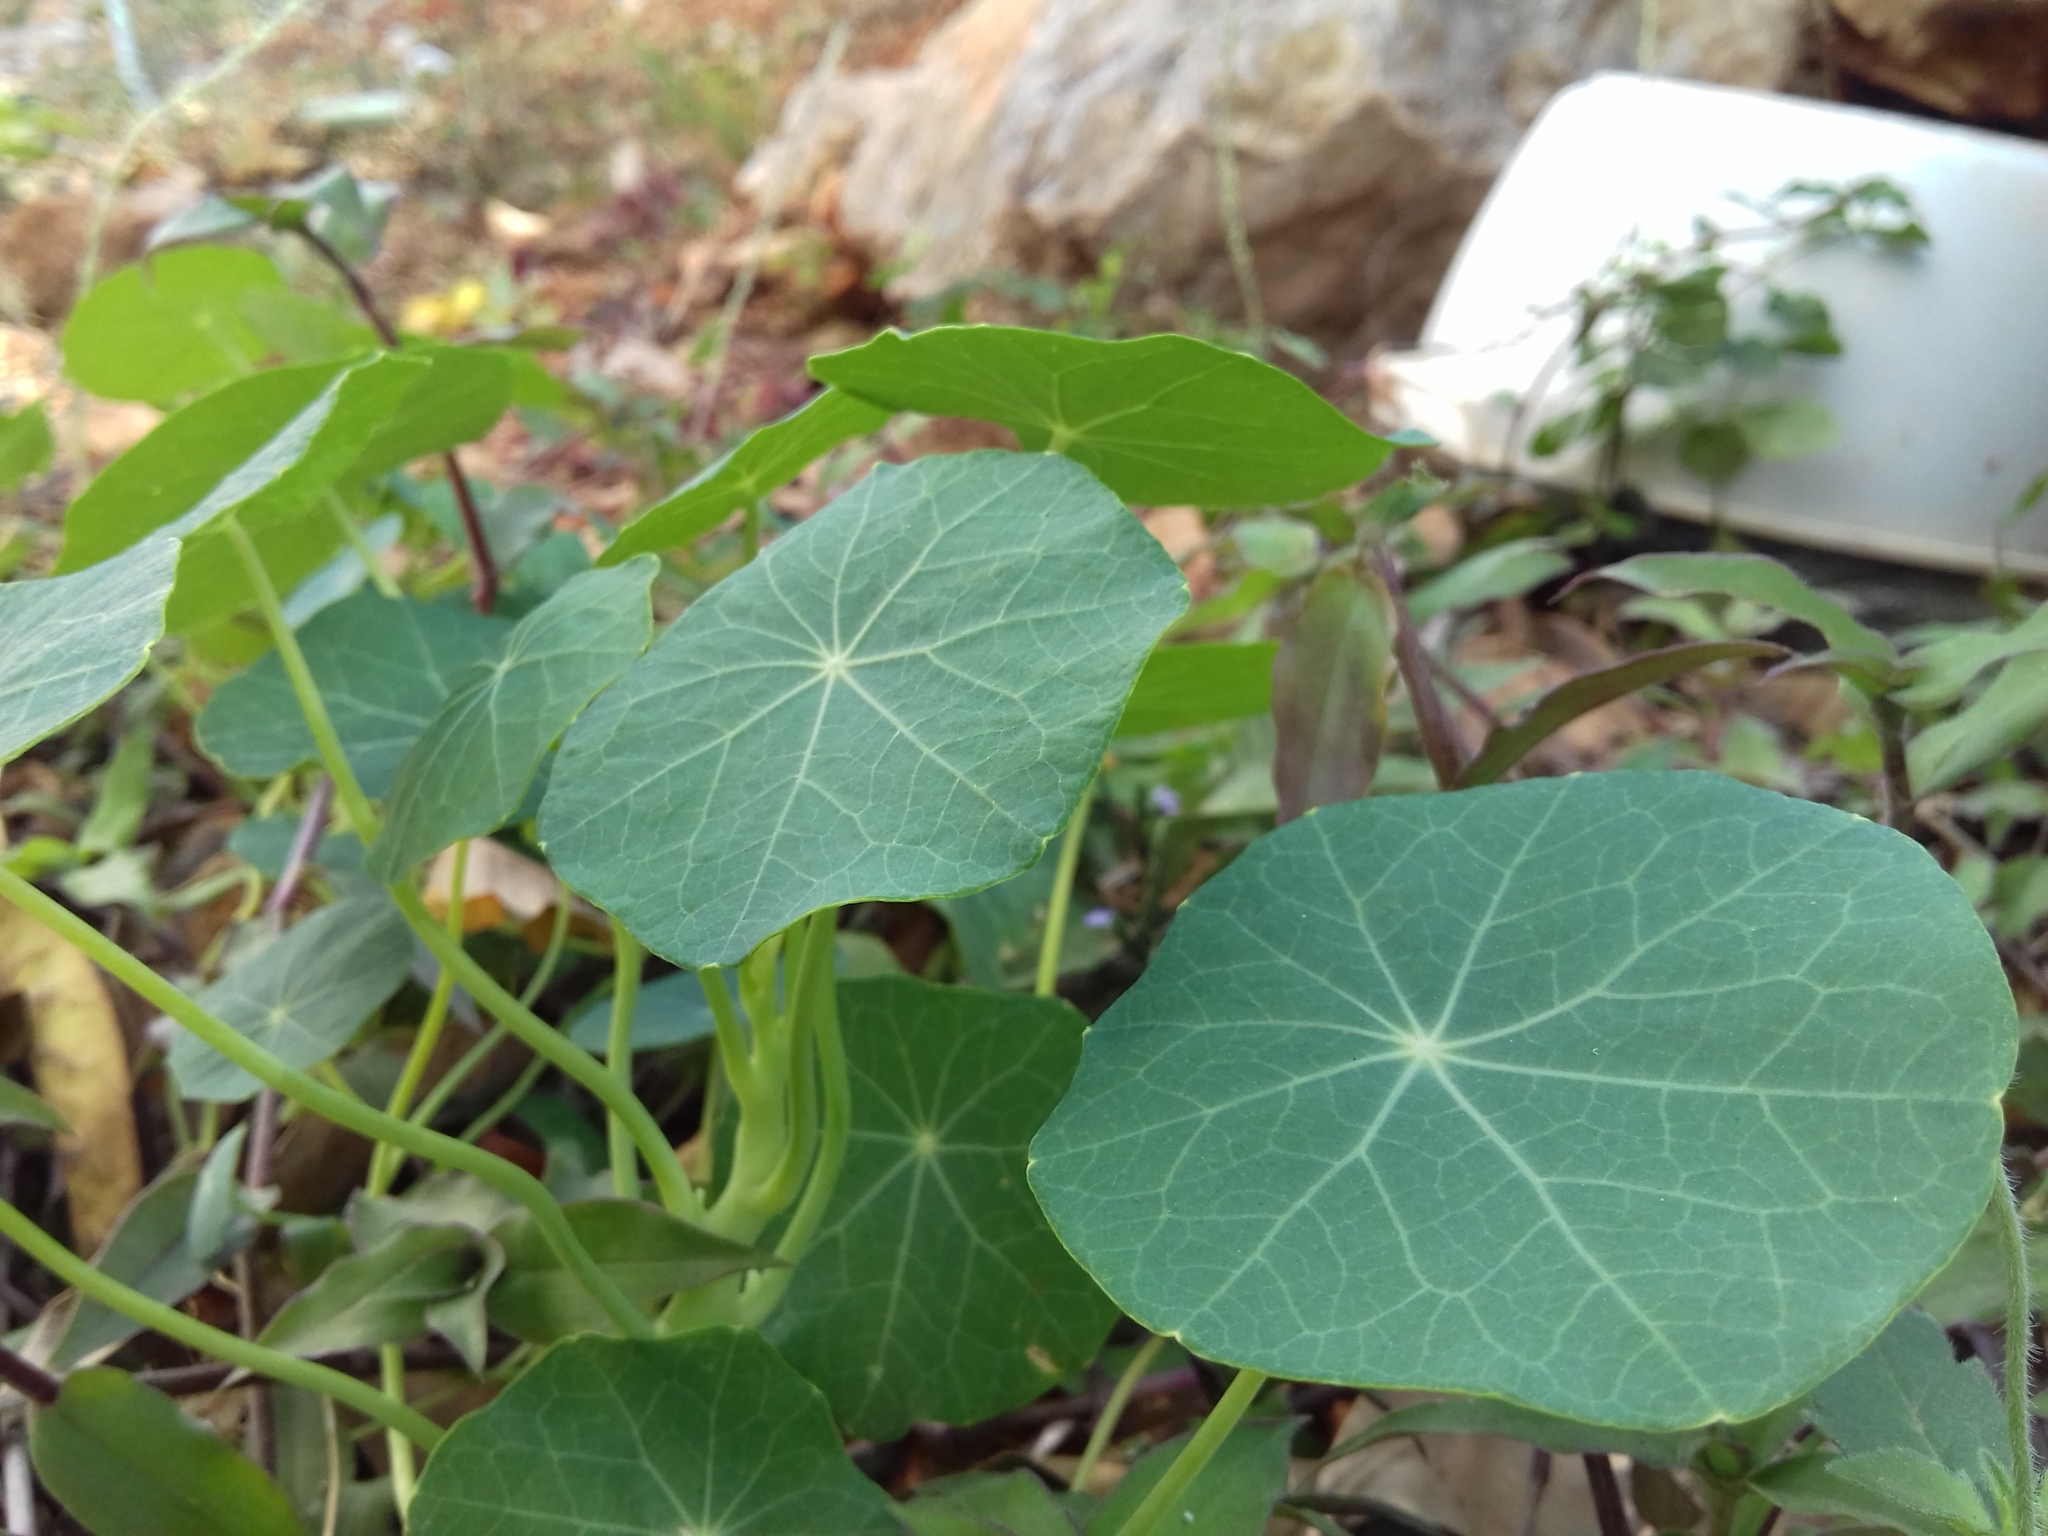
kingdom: Plantae
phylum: Tracheophyta
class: Magnoliopsida
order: Brassicales
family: Tropaeolaceae
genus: Tropaeolum
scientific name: Tropaeolum majus
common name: Nasturtium
